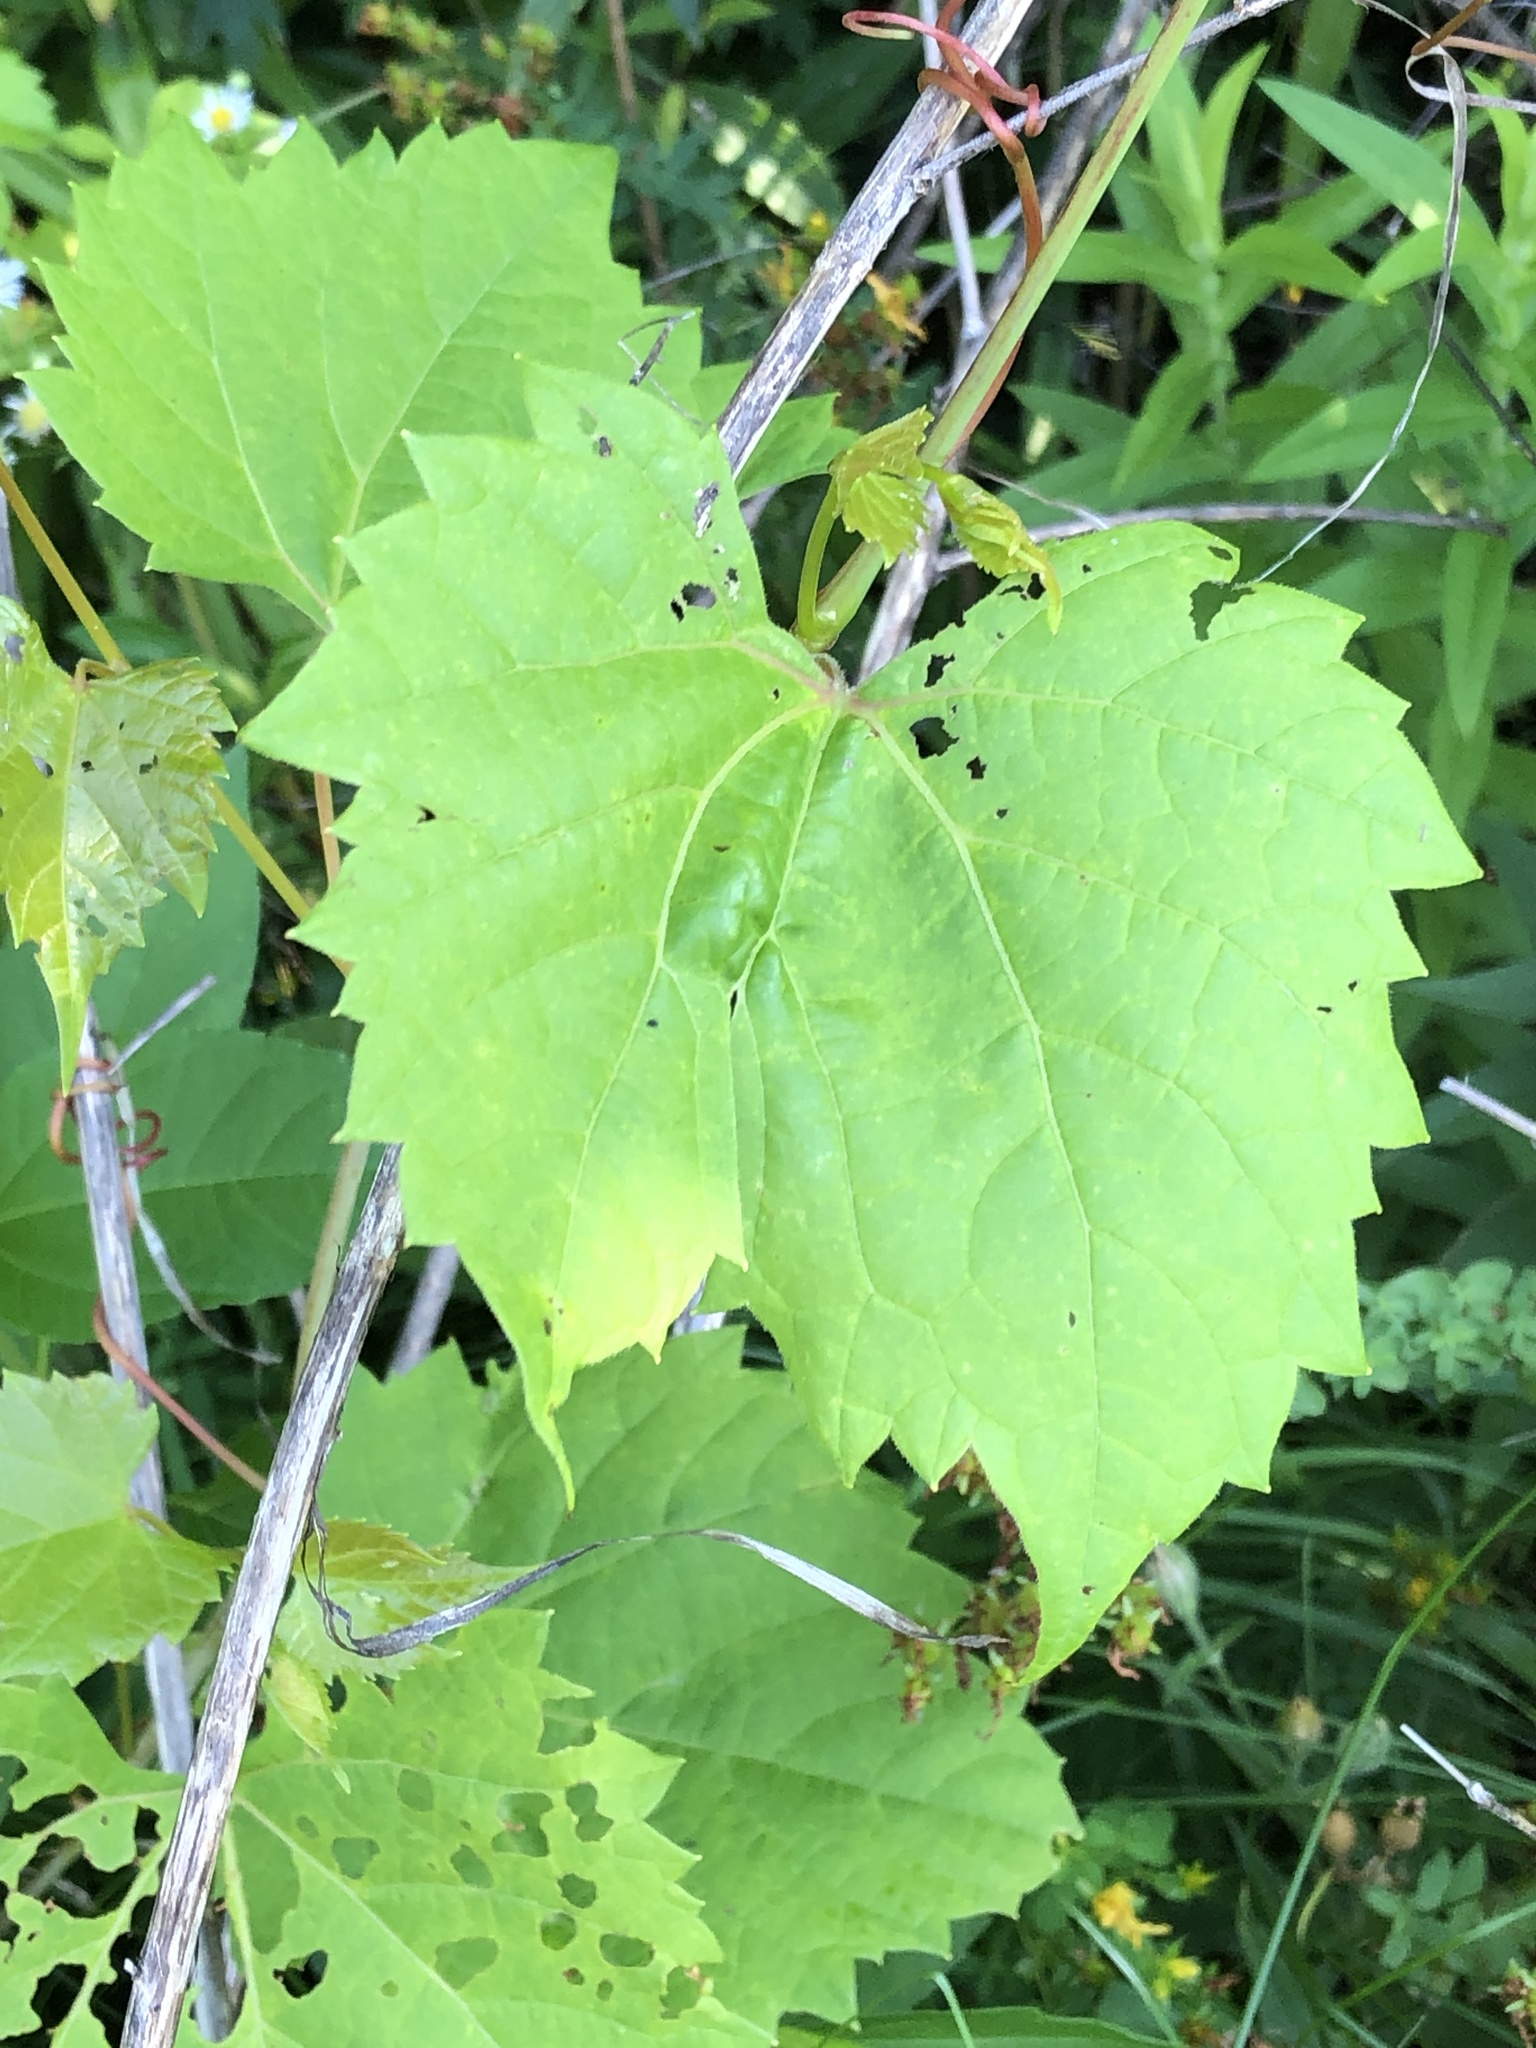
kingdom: Plantae
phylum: Tracheophyta
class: Magnoliopsida
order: Vitales
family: Vitaceae
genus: Vitis
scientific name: Vitis riparia
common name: Frost grape
